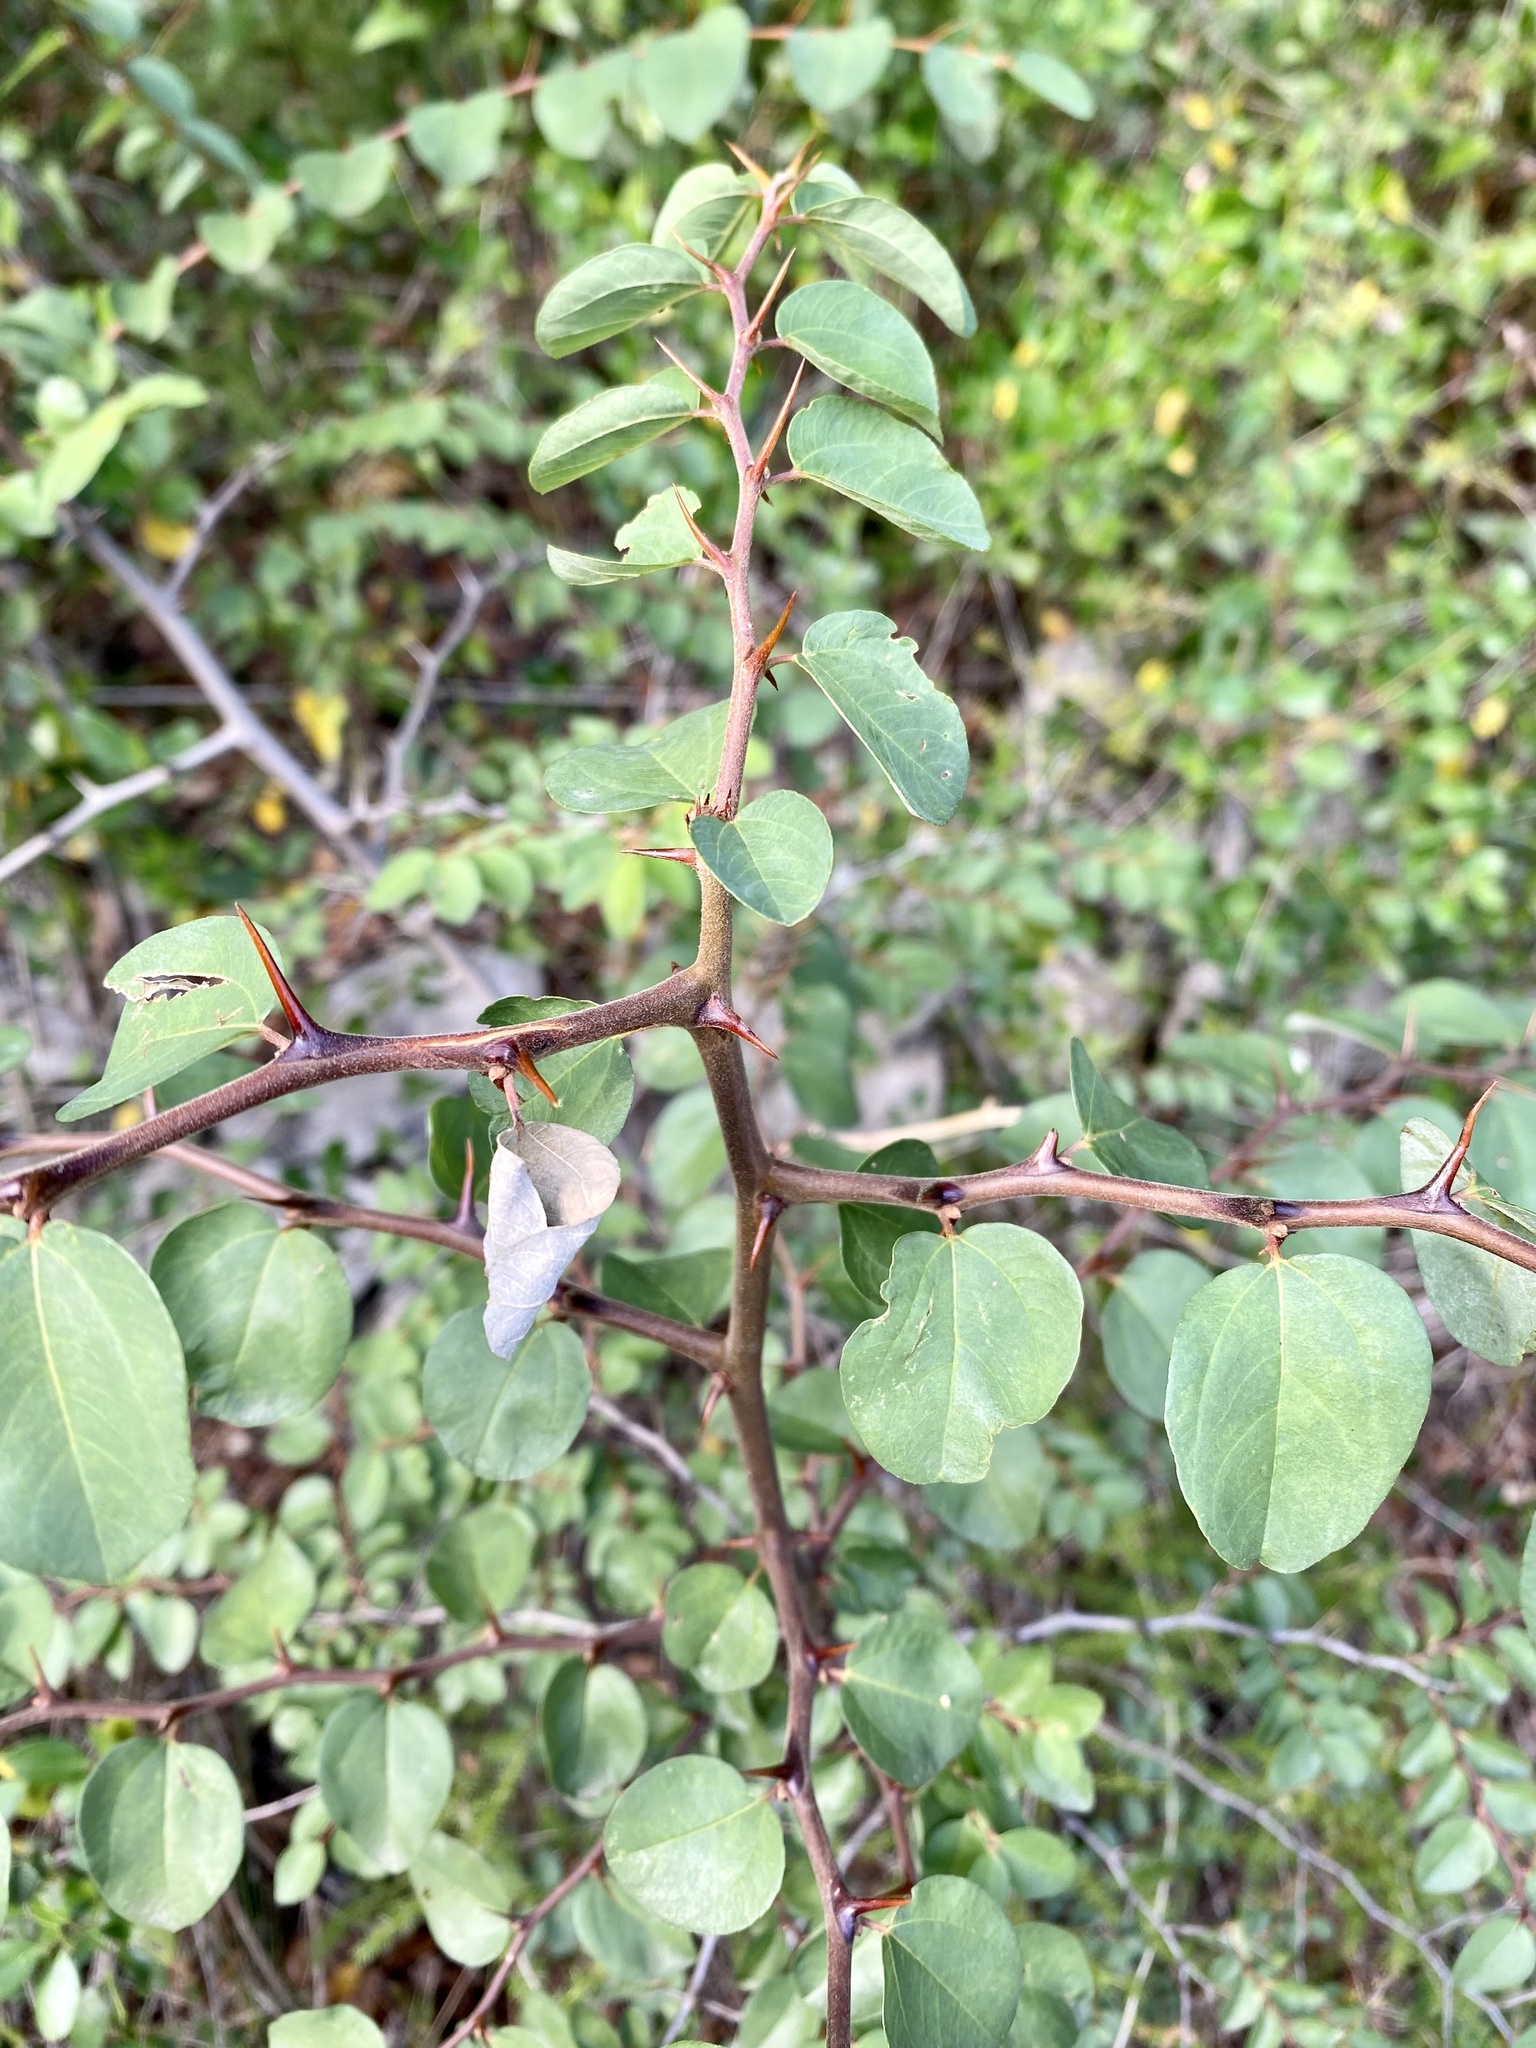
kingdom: Plantae
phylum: Tracheophyta
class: Magnoliopsida
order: Rosales
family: Rhamnaceae
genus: Paliurus
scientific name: Paliurus spina-christi
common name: Jeruselem thorn
